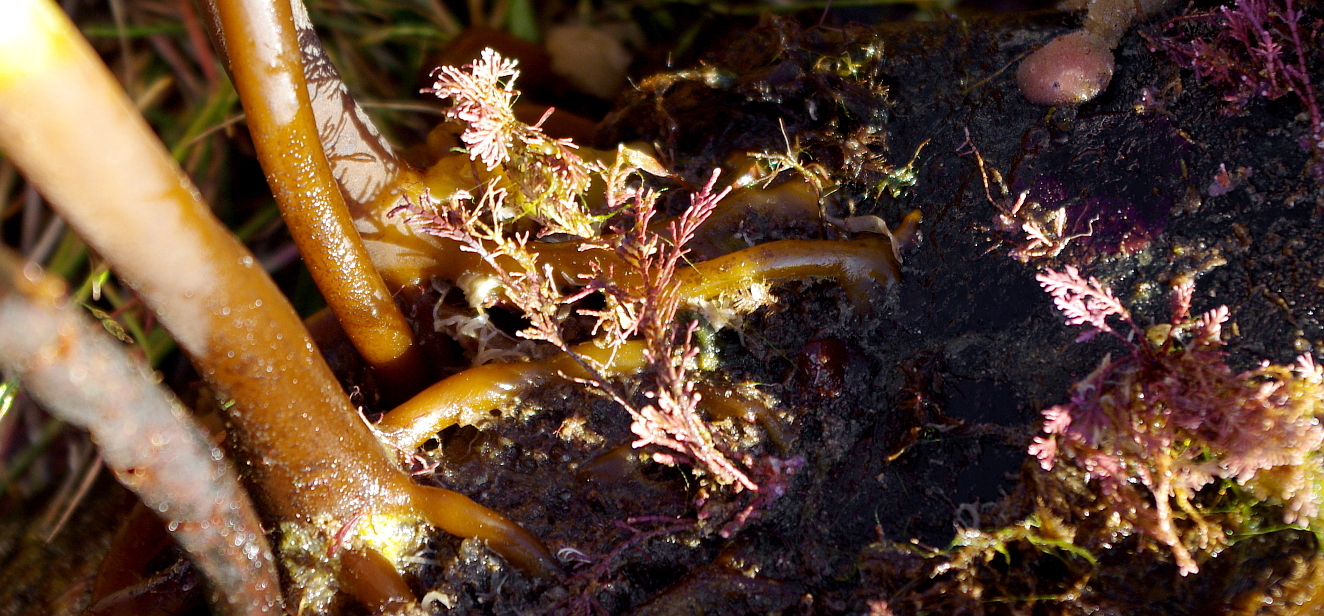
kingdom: Plantae
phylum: Rhodophyta
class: Florideophyceae
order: Corallinales
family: Corallinaceae
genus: Corallina
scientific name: Corallina officinalis
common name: Coral weed
